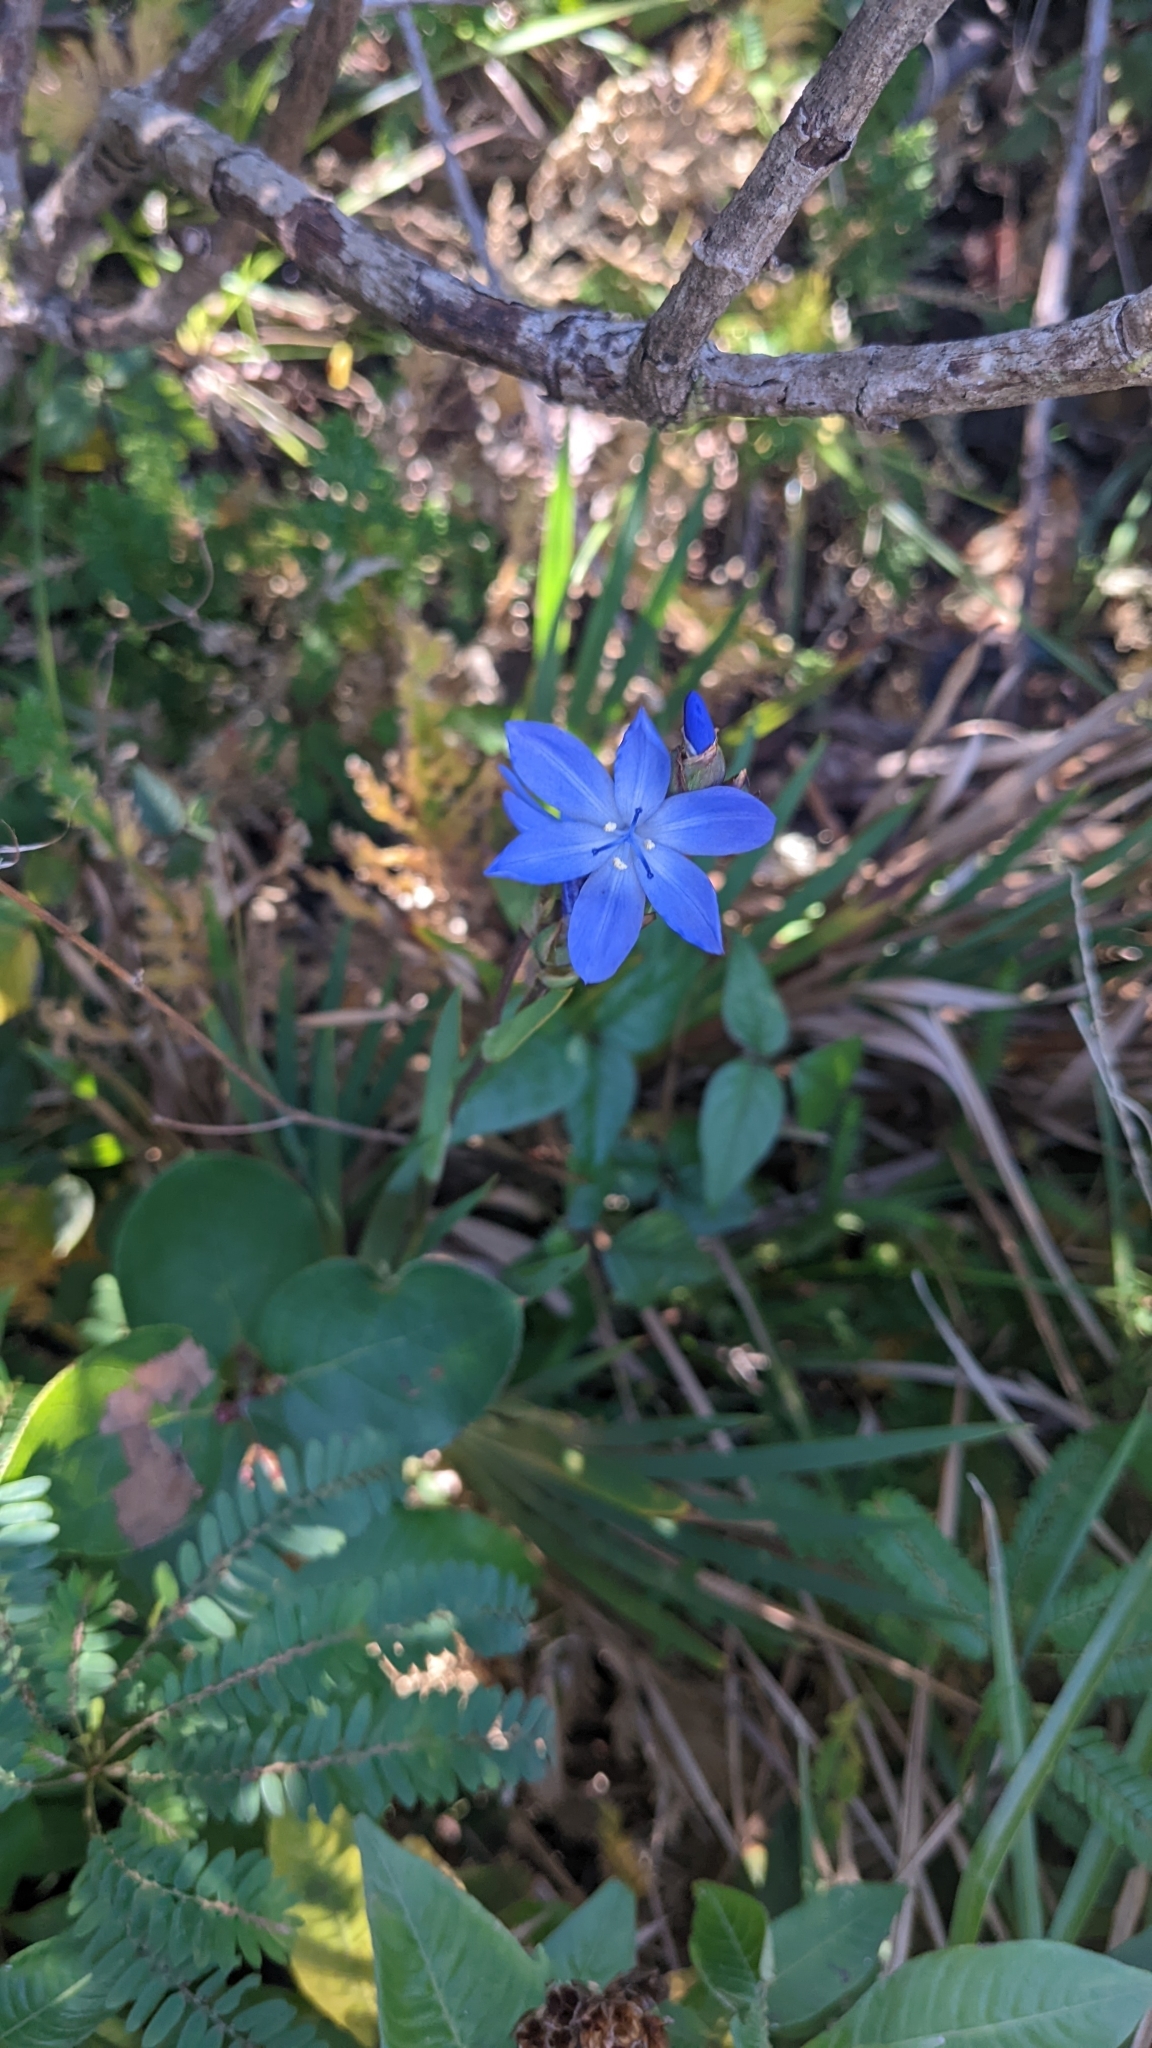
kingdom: Plantae
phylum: Tracheophyta
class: Liliopsida
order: Asparagales
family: Iridaceae
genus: Orthrosanthus
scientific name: Orthrosanthus monadelphus
